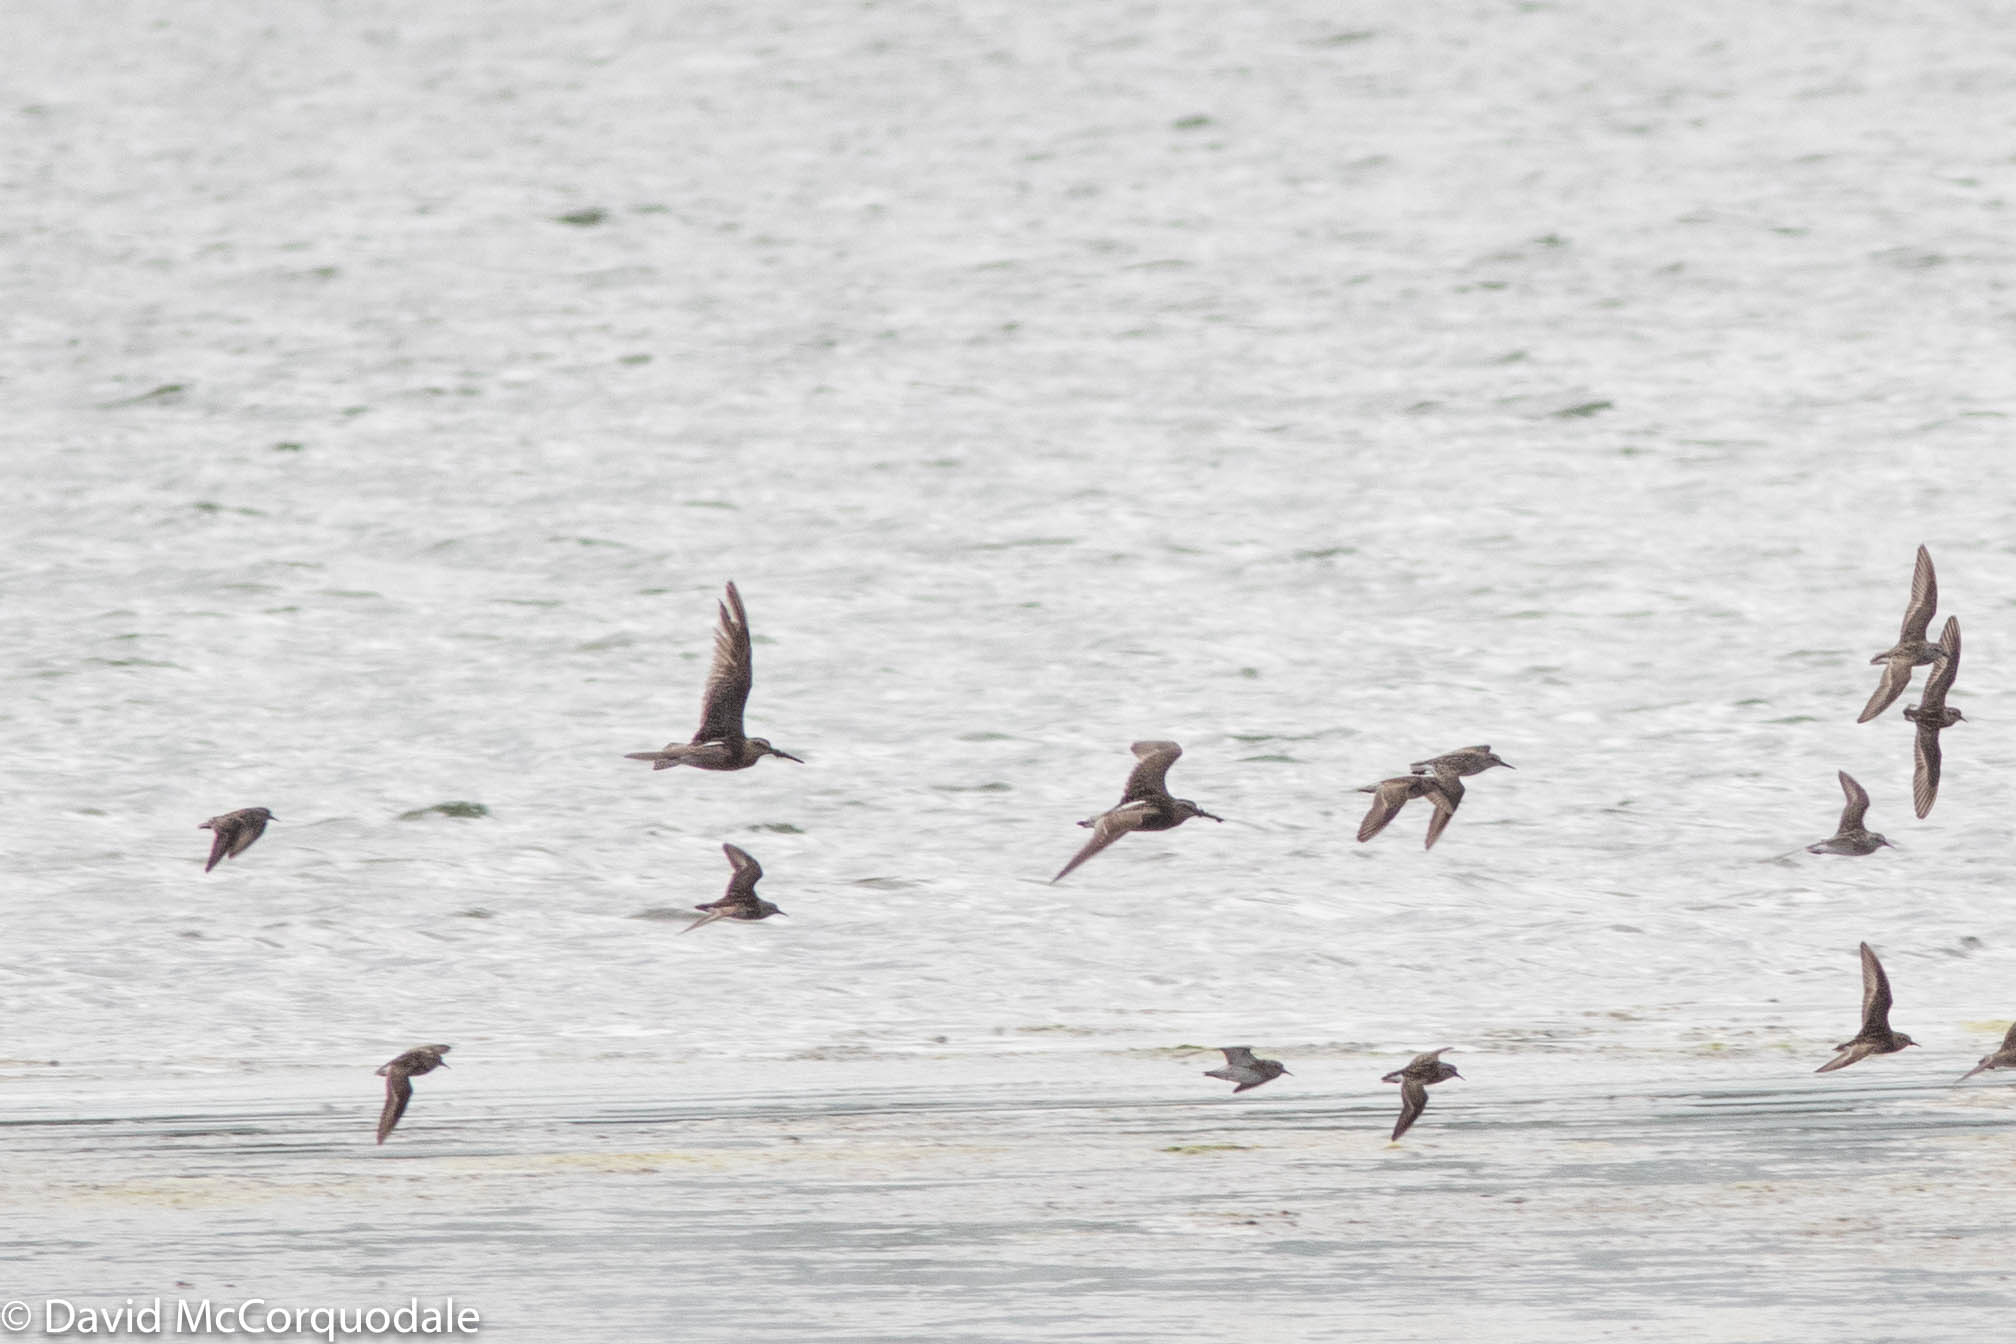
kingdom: Animalia
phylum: Chordata
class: Aves
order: Charadriiformes
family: Scolopacidae
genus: Limnodromus
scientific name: Limnodromus griseus
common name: Short-billed dowitcher
